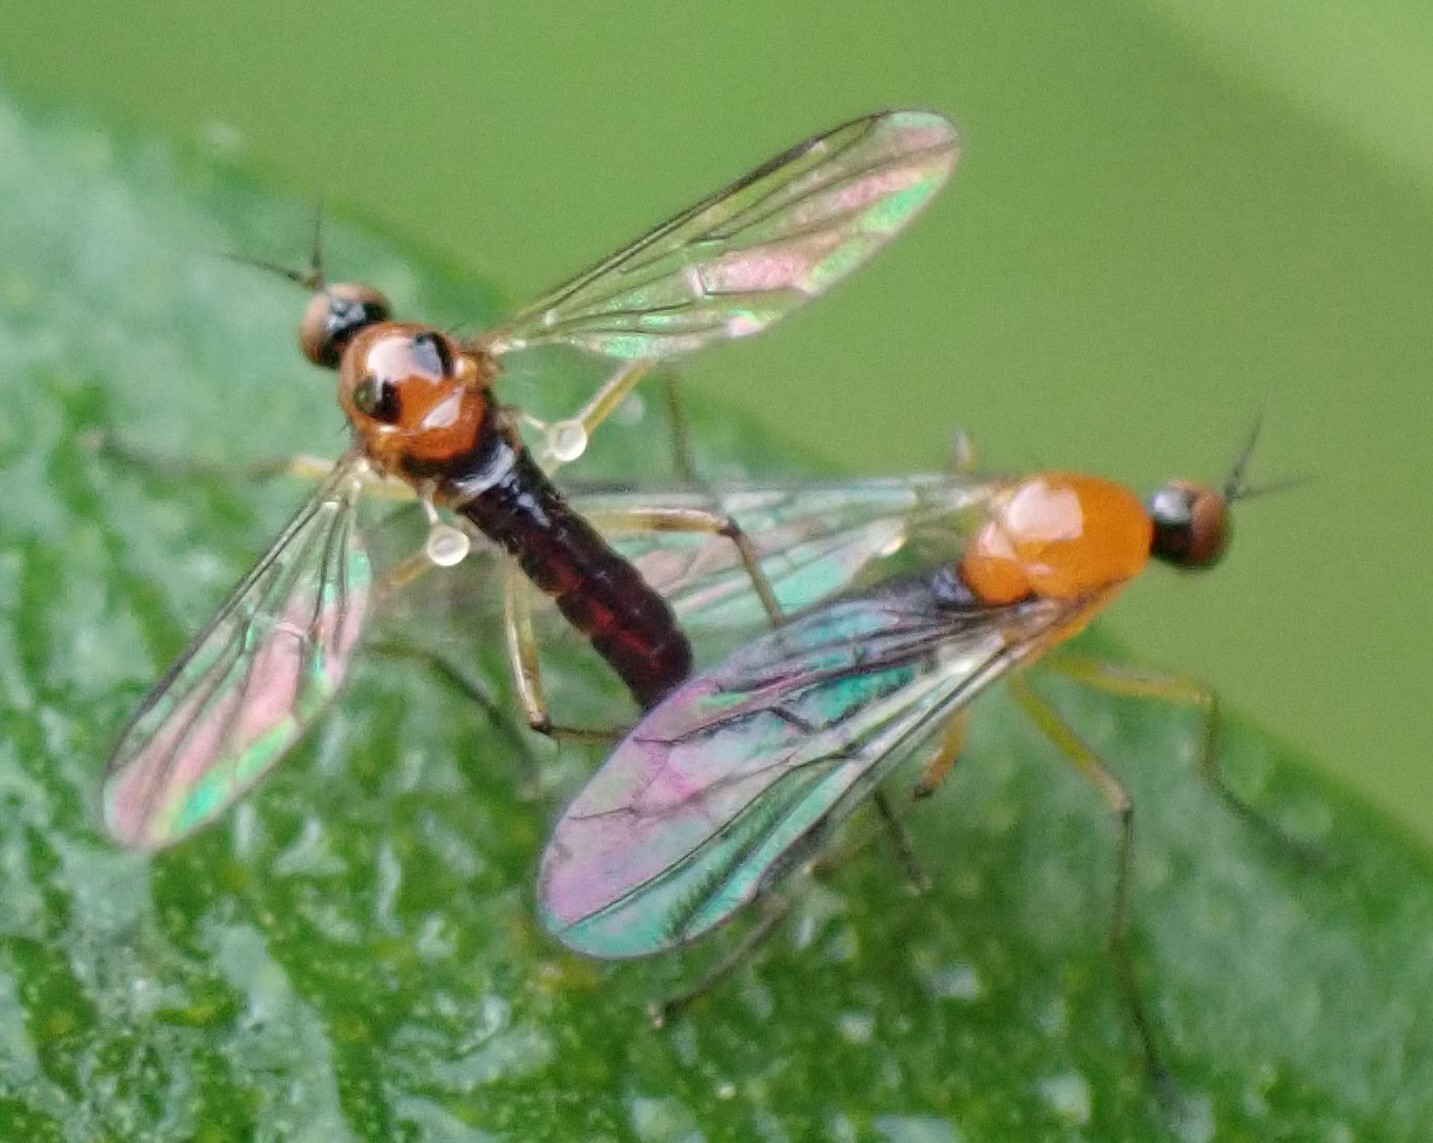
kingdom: Animalia
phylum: Arthropoda
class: Insecta
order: Diptera
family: Hybotidae
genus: Leptodromia
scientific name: Leptodromia bimaculata
